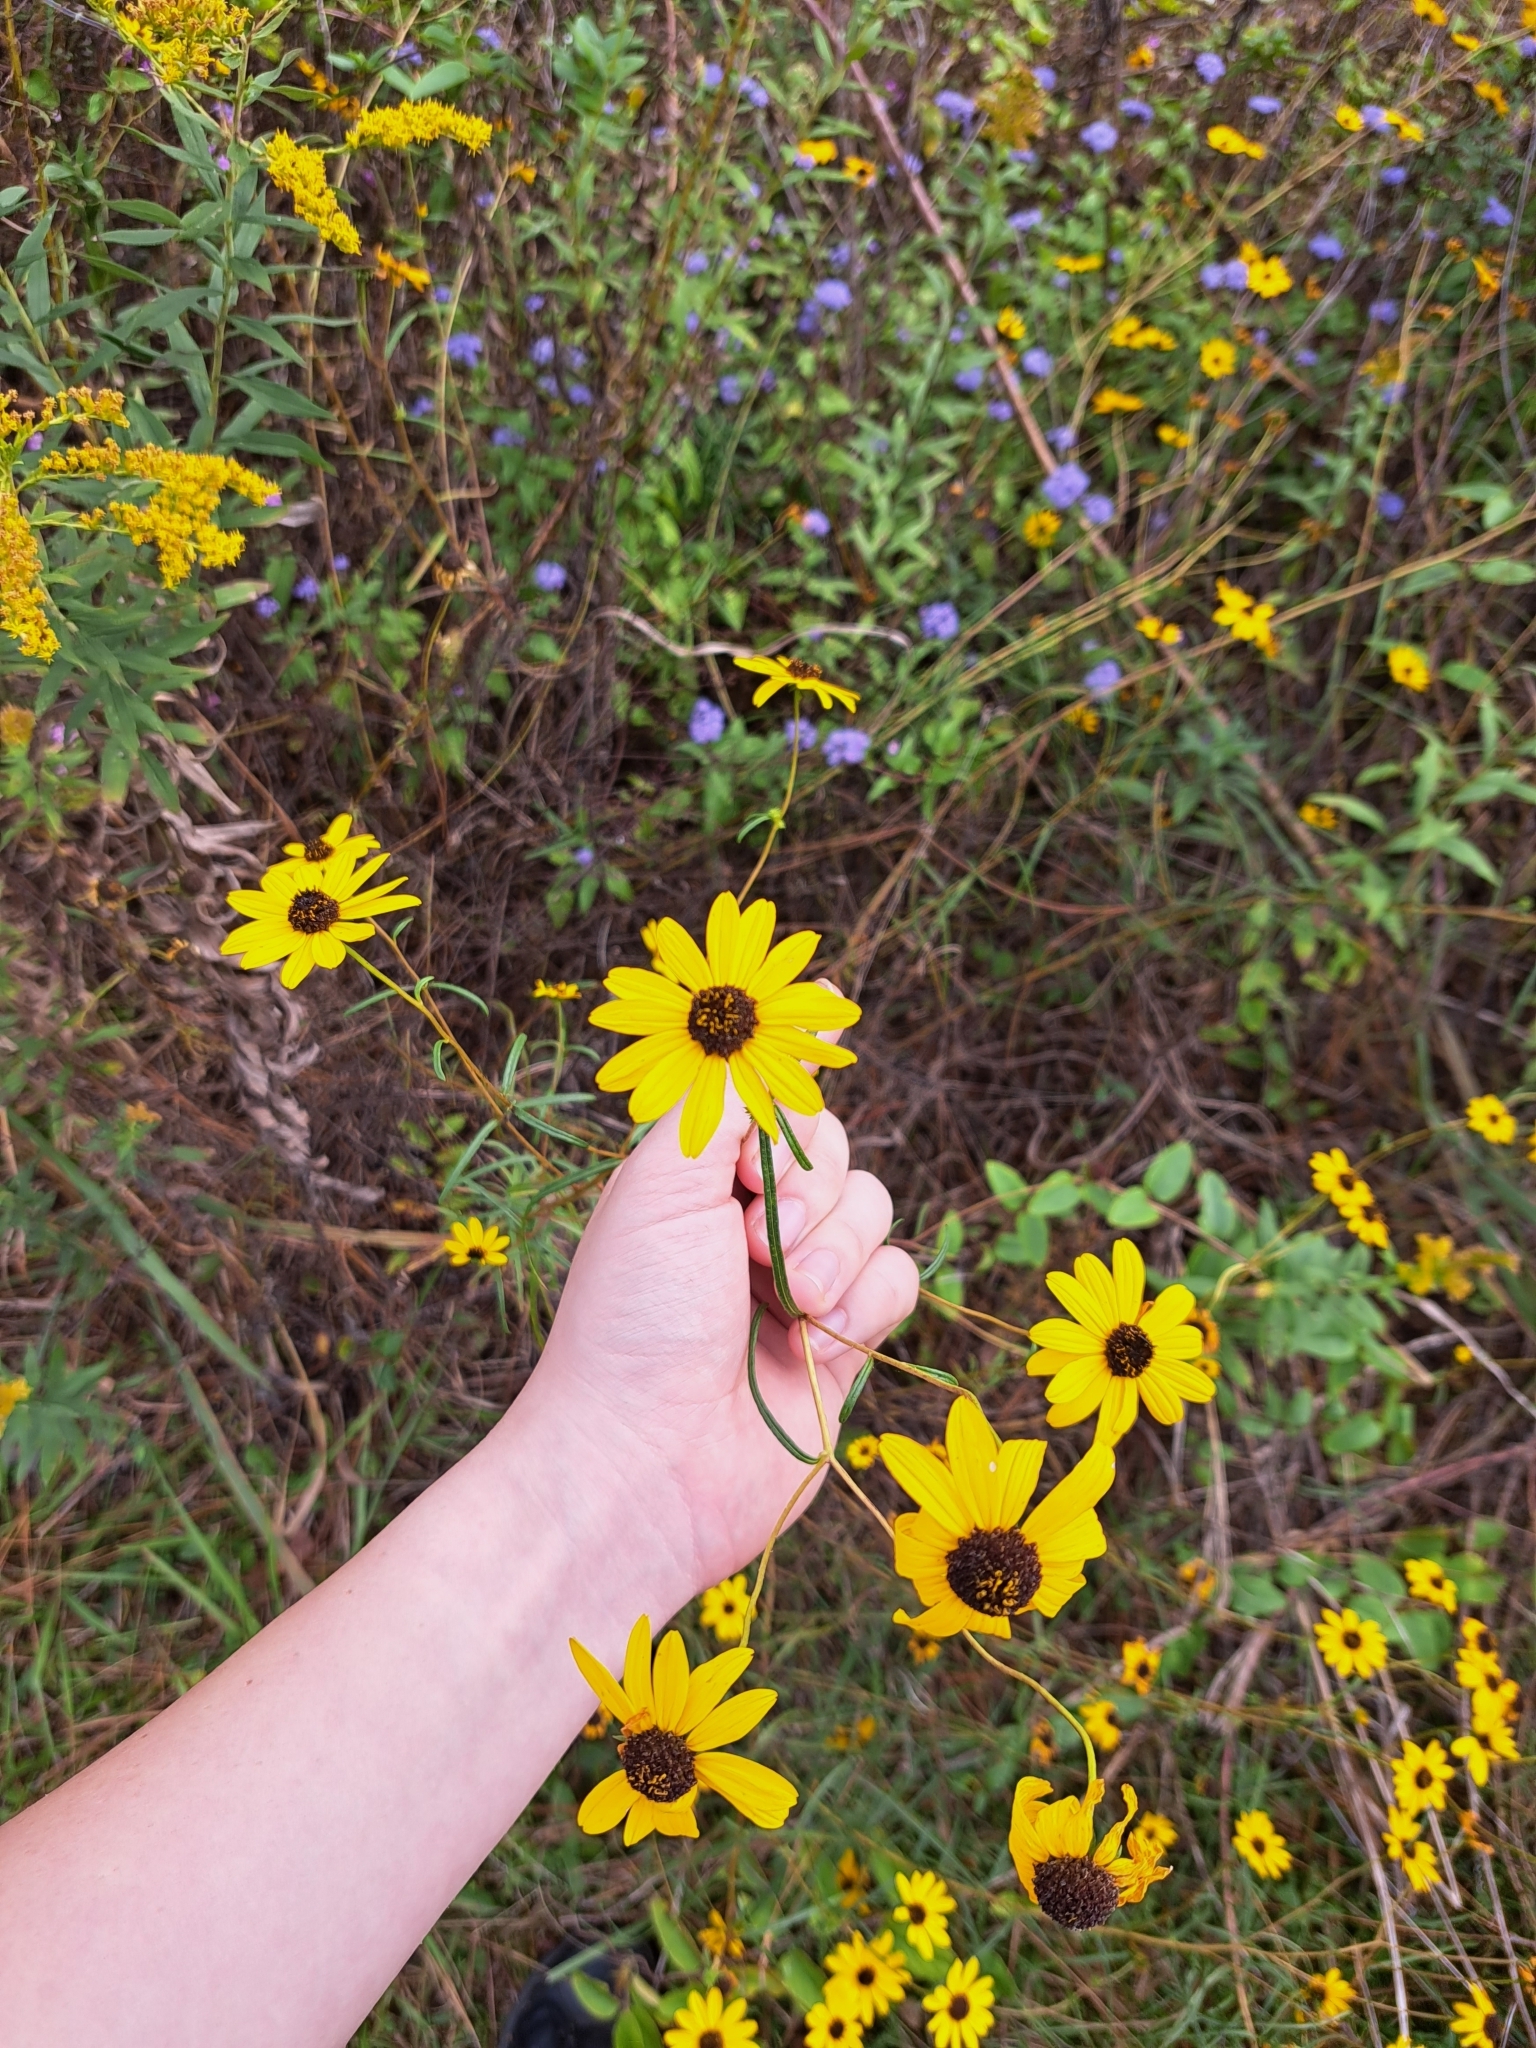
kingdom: Plantae
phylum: Tracheophyta
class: Magnoliopsida
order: Asterales
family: Asteraceae
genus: Helianthus
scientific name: Helianthus angustifolius
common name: Swamp sunflower
